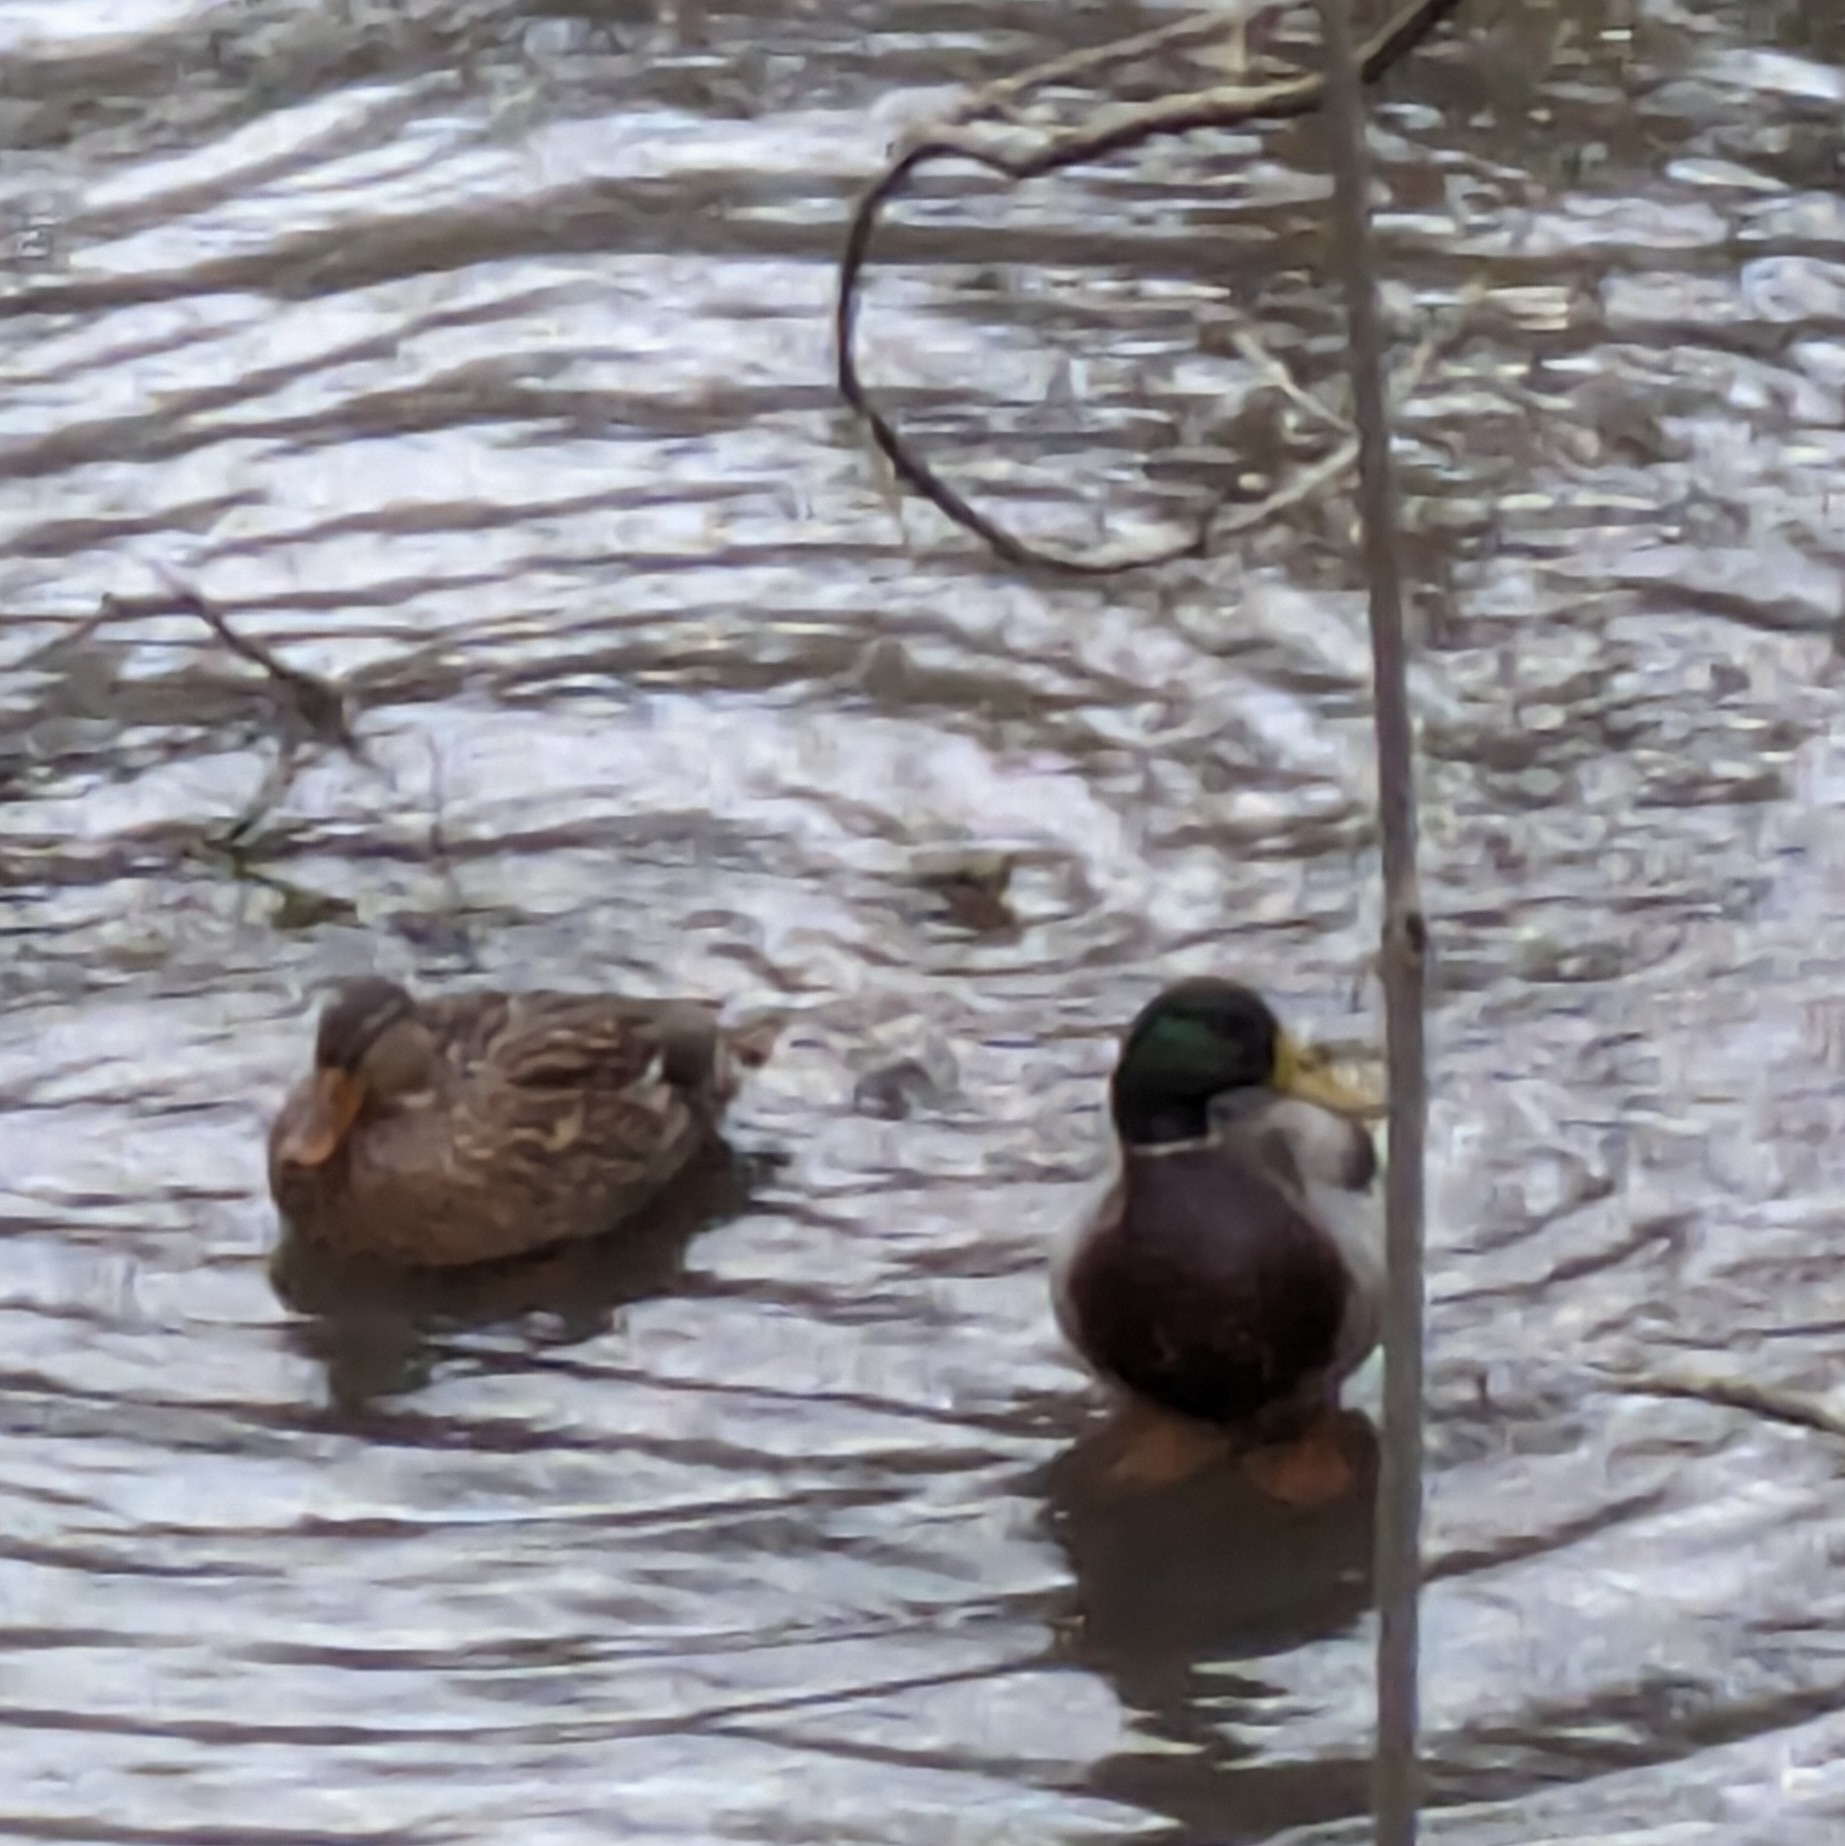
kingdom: Animalia
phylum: Chordata
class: Aves
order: Anseriformes
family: Anatidae
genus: Anas
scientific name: Anas platyrhynchos
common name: Mallard
